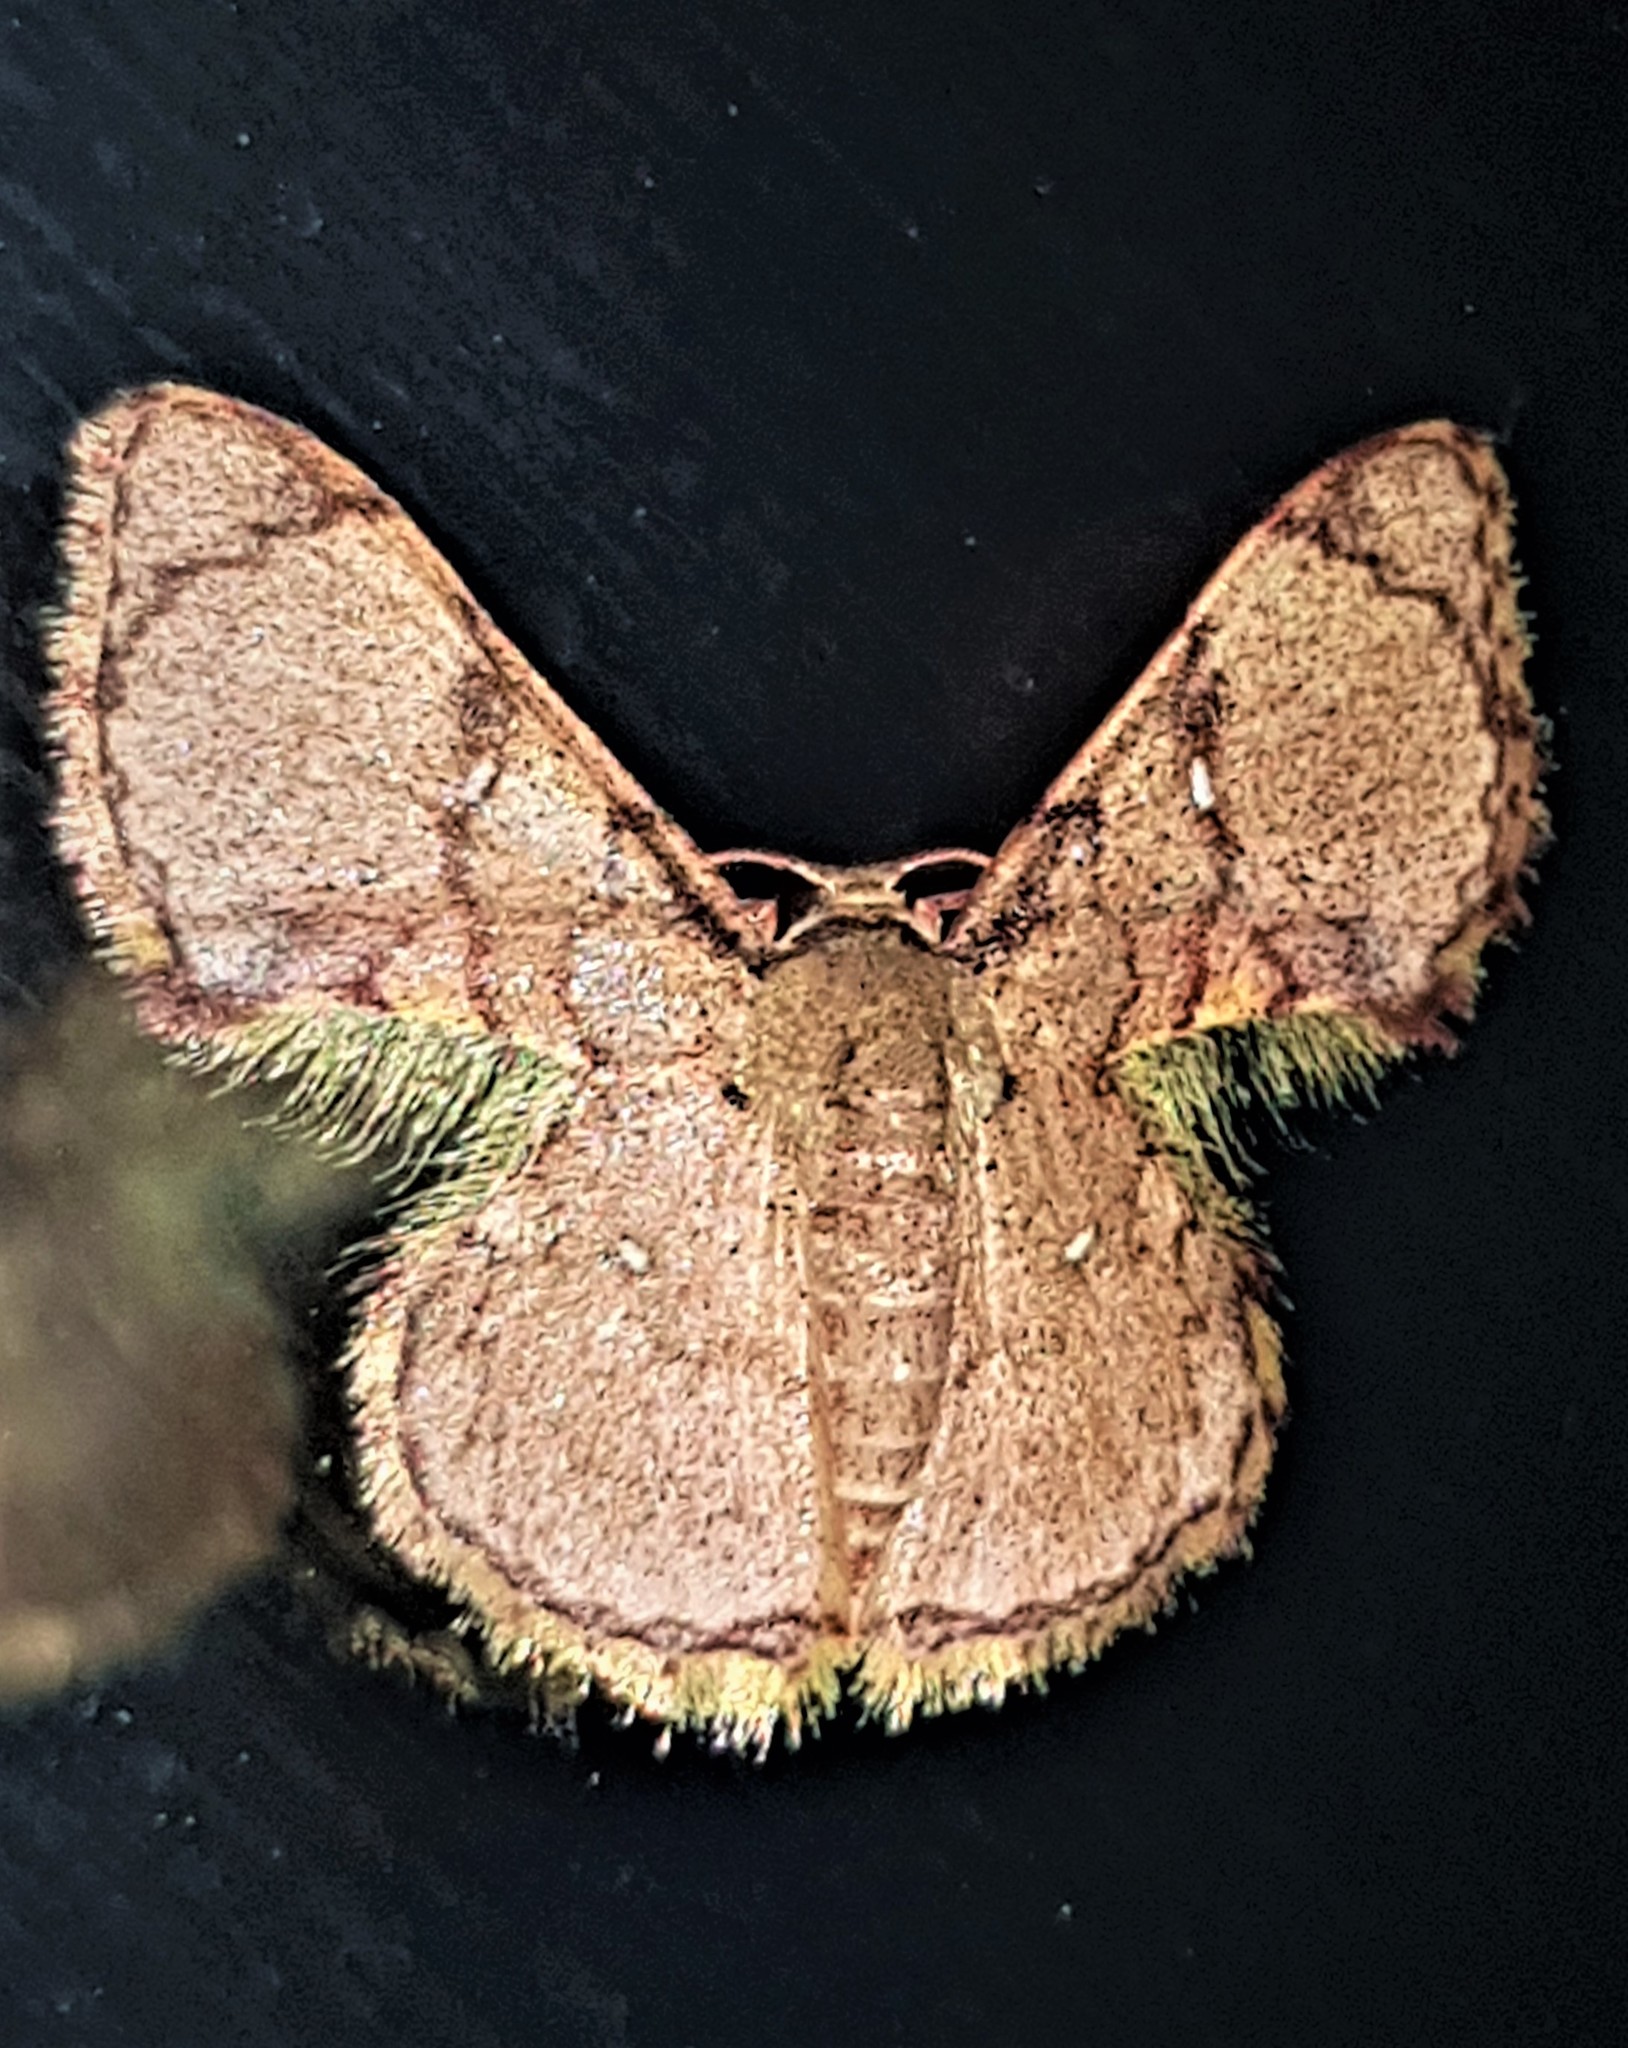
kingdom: Animalia
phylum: Arthropoda
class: Insecta
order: Lepidoptera
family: Geometridae
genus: Hemipterodes
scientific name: Hemipterodes subrotundata
